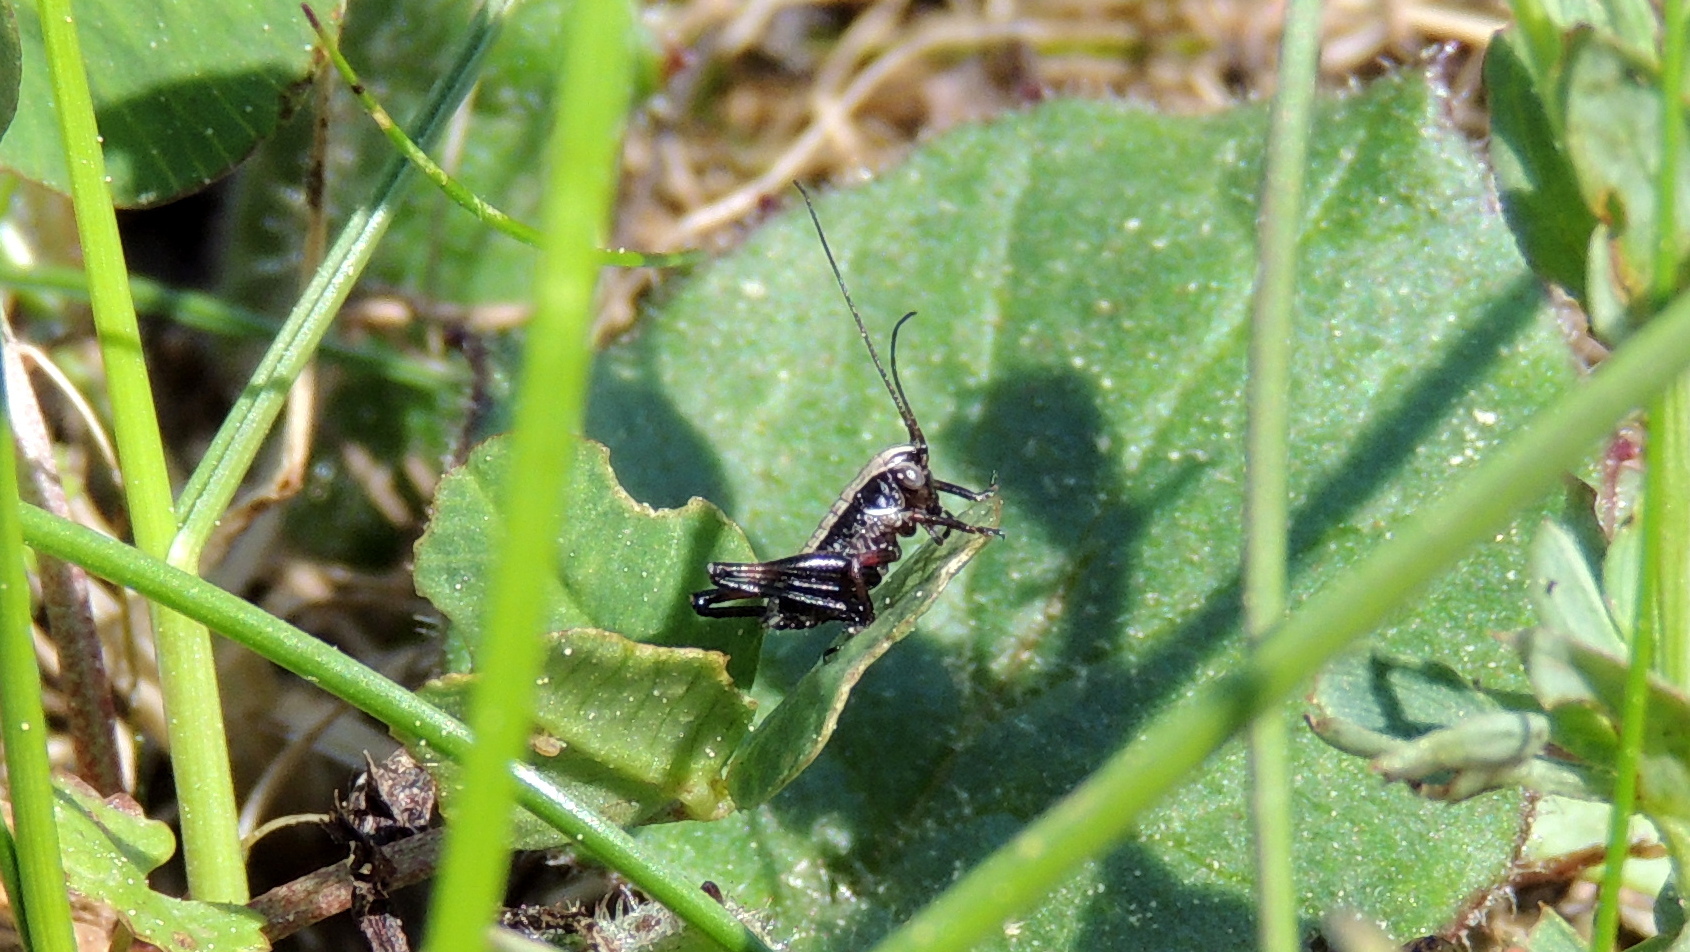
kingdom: Animalia
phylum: Arthropoda
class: Insecta
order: Orthoptera
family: Tettigoniidae
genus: Pholidoptera
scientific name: Pholidoptera griseoaptera
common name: Dark bush-cricket
